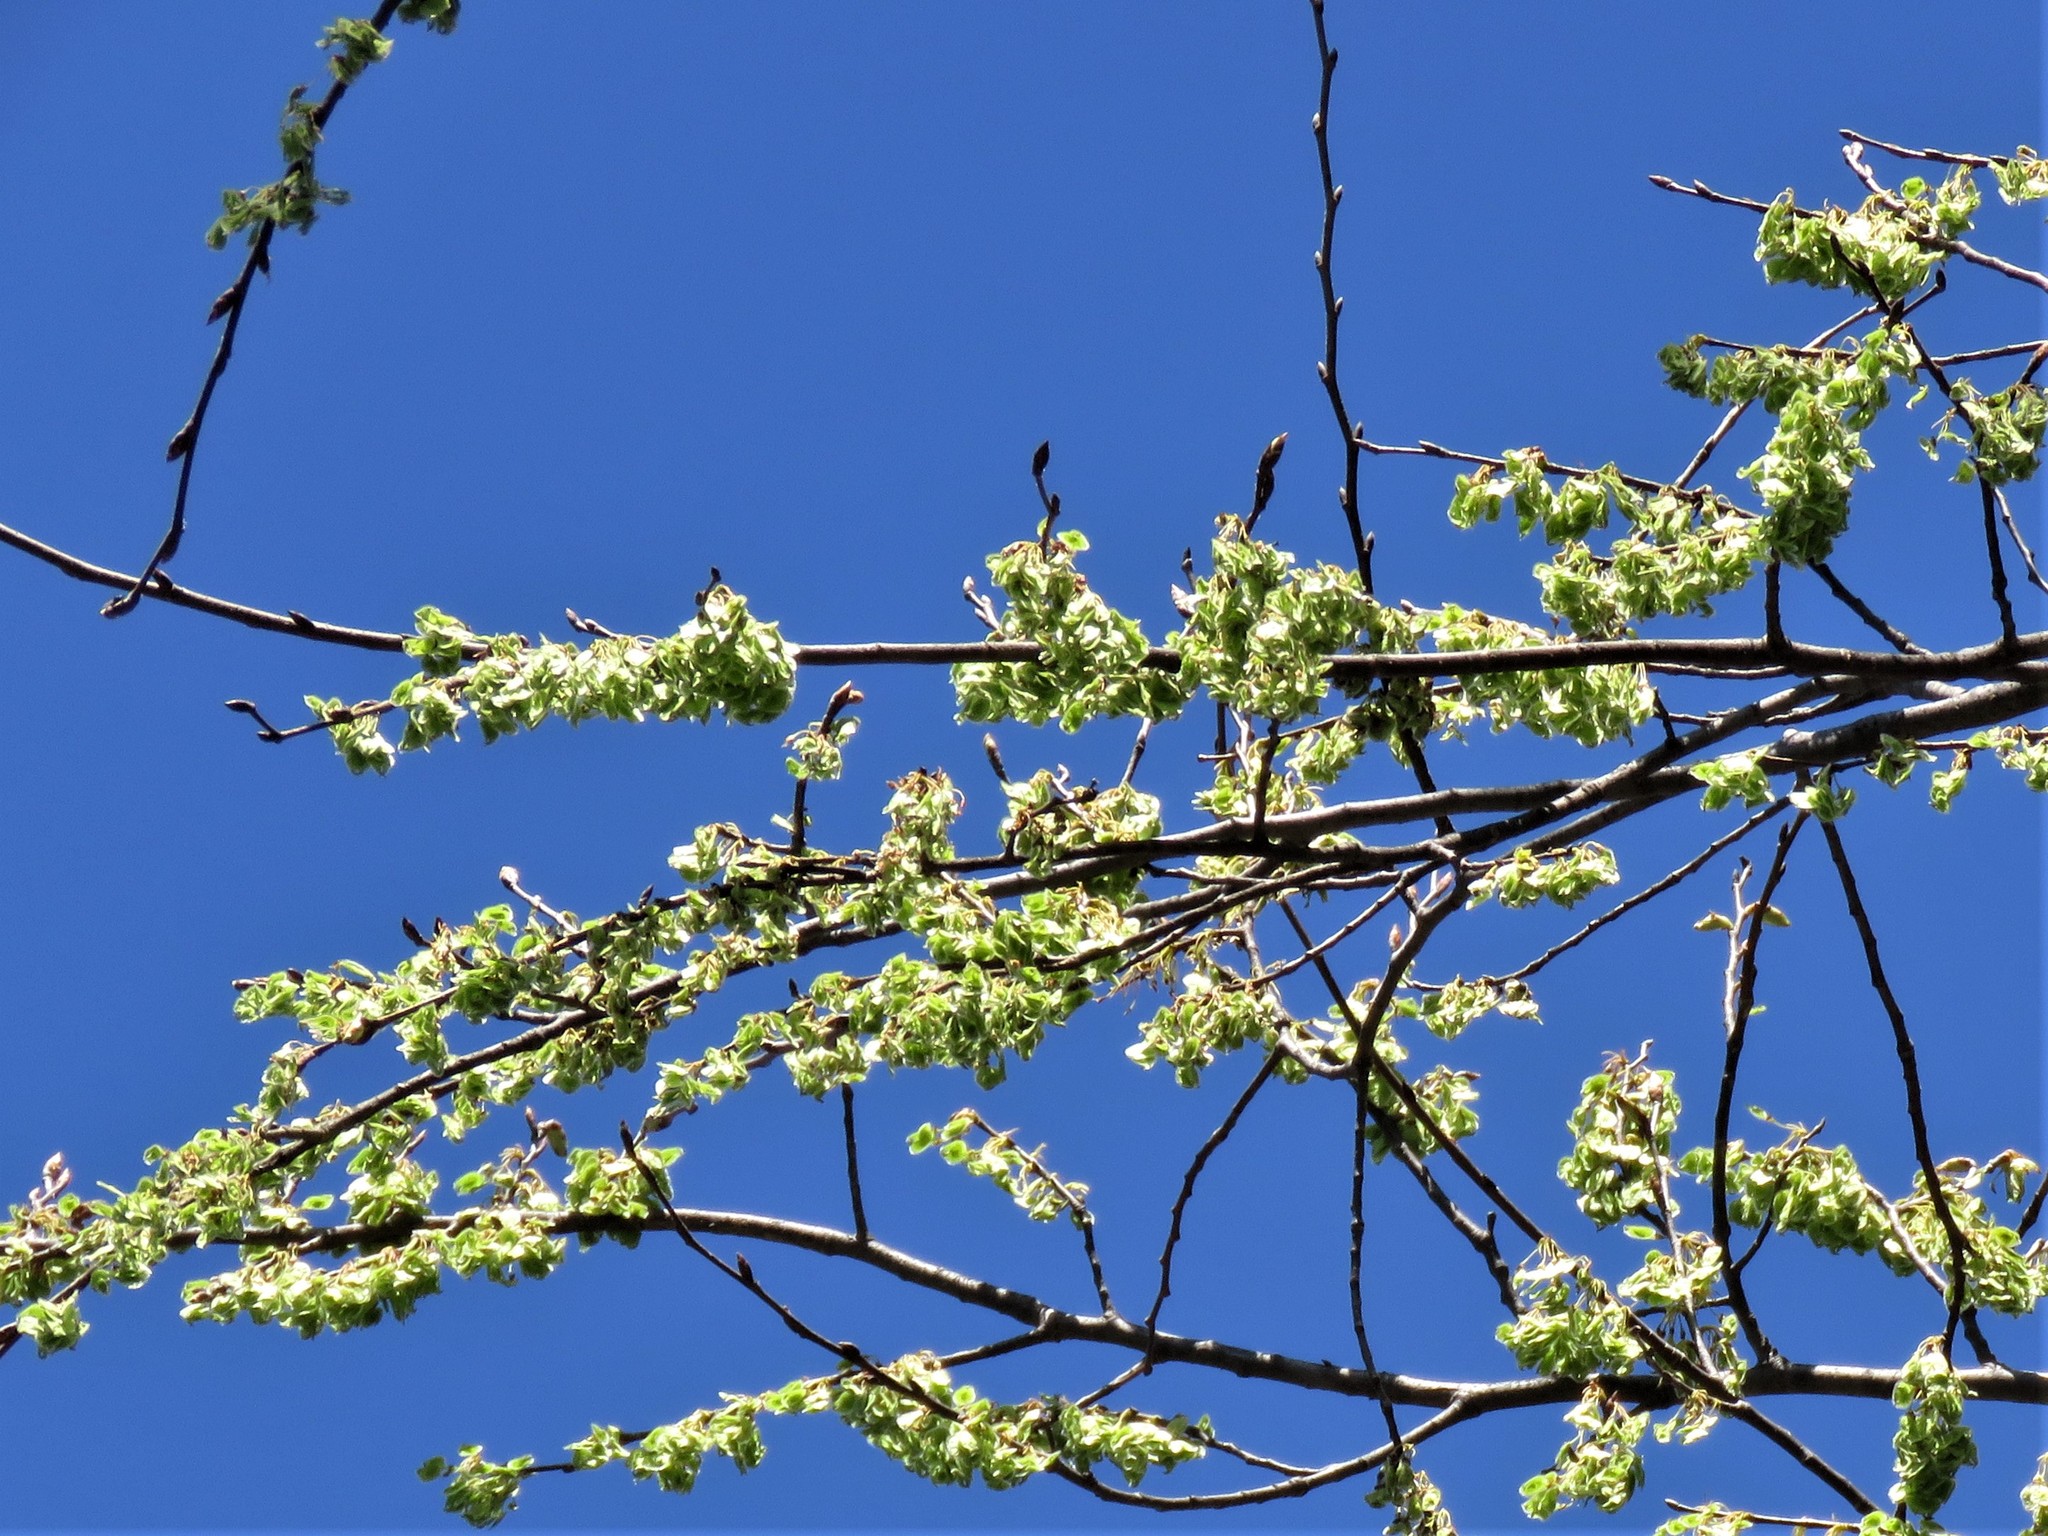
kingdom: Plantae
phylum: Tracheophyta
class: Magnoliopsida
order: Rosales
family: Ulmaceae
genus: Ulmus
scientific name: Ulmus americana
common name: American elm
